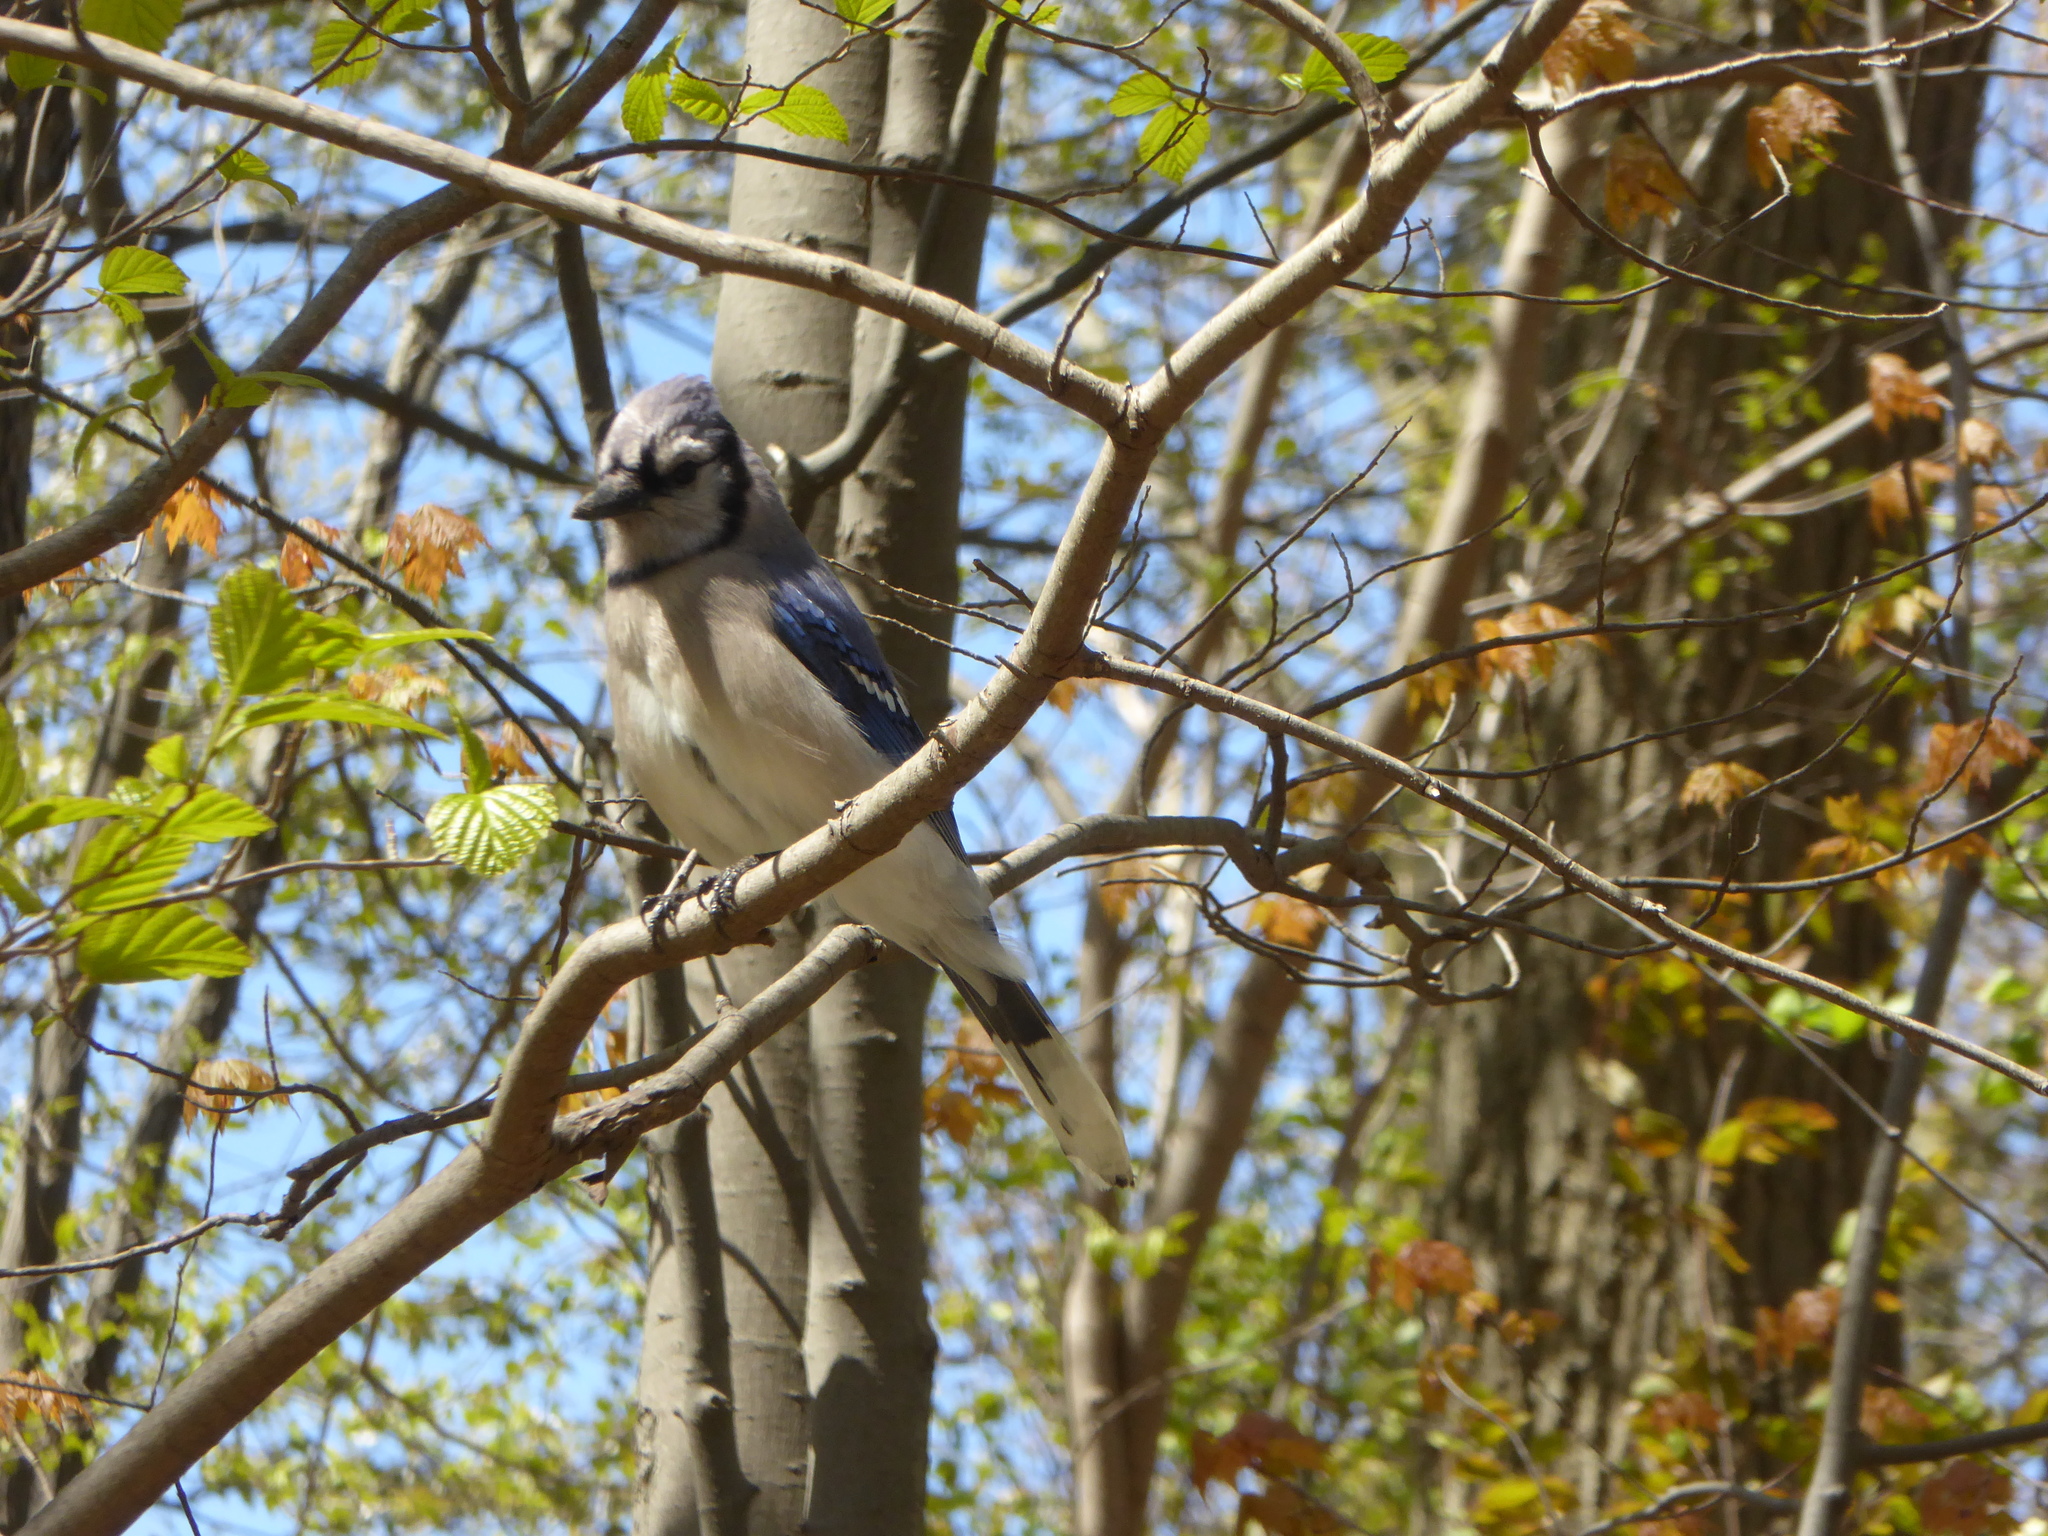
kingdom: Animalia
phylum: Chordata
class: Aves
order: Passeriformes
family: Corvidae
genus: Cyanocitta
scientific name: Cyanocitta cristata
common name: Blue jay
